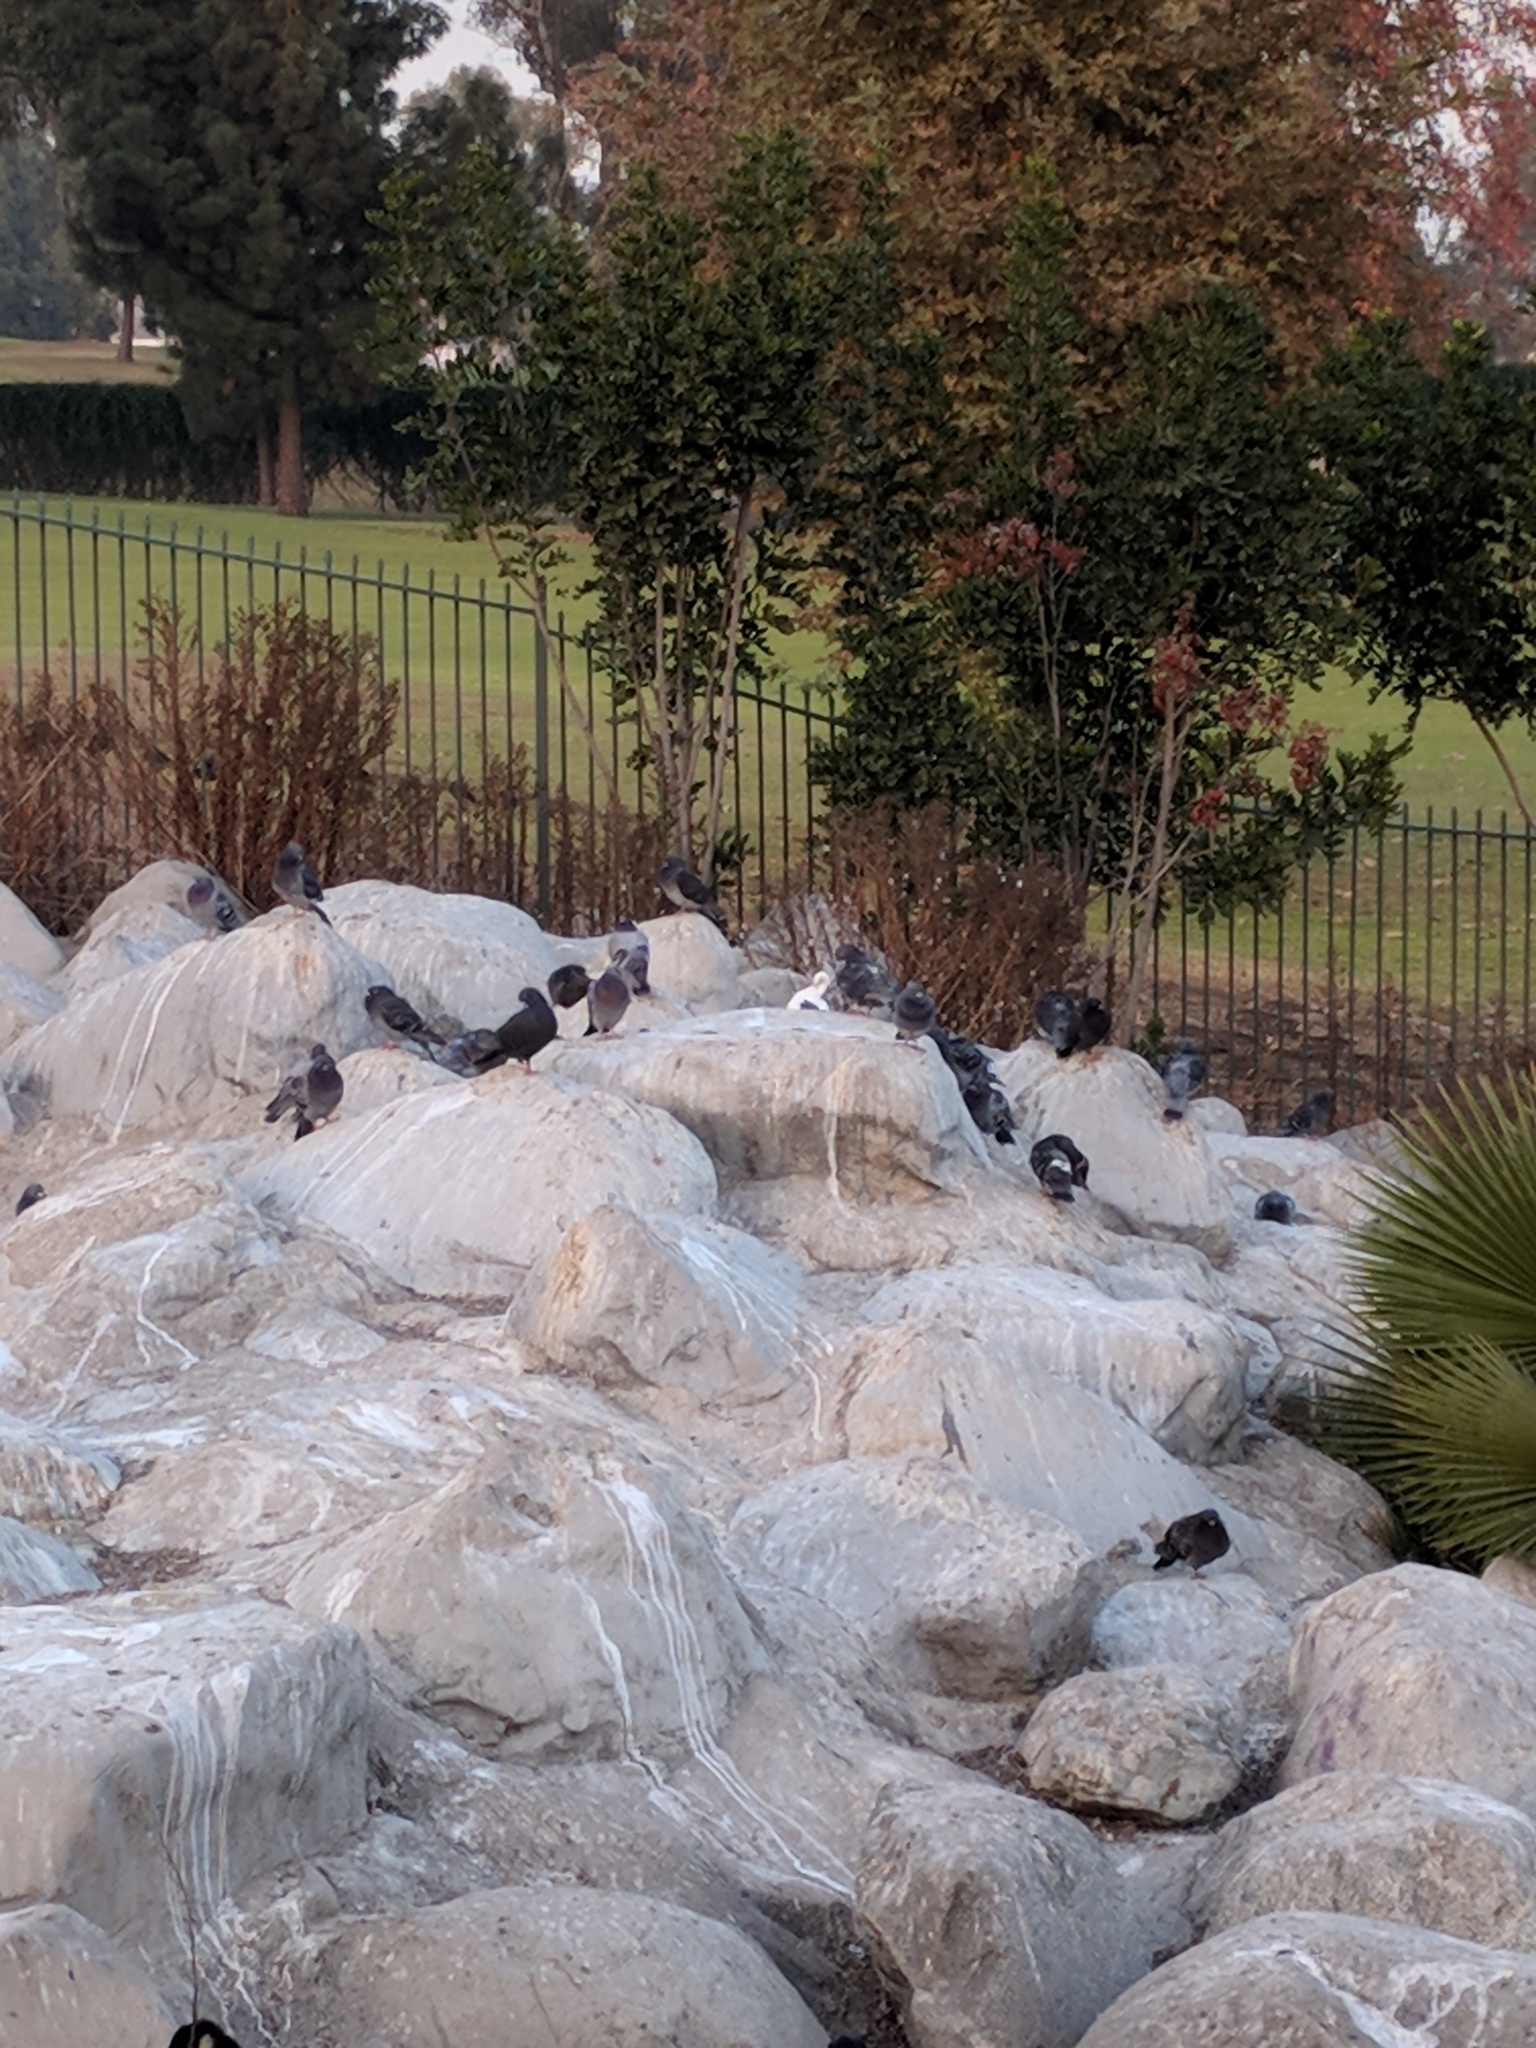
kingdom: Animalia
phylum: Chordata
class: Aves
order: Columbiformes
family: Columbidae
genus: Columba
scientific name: Columba livia
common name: Rock pigeon
